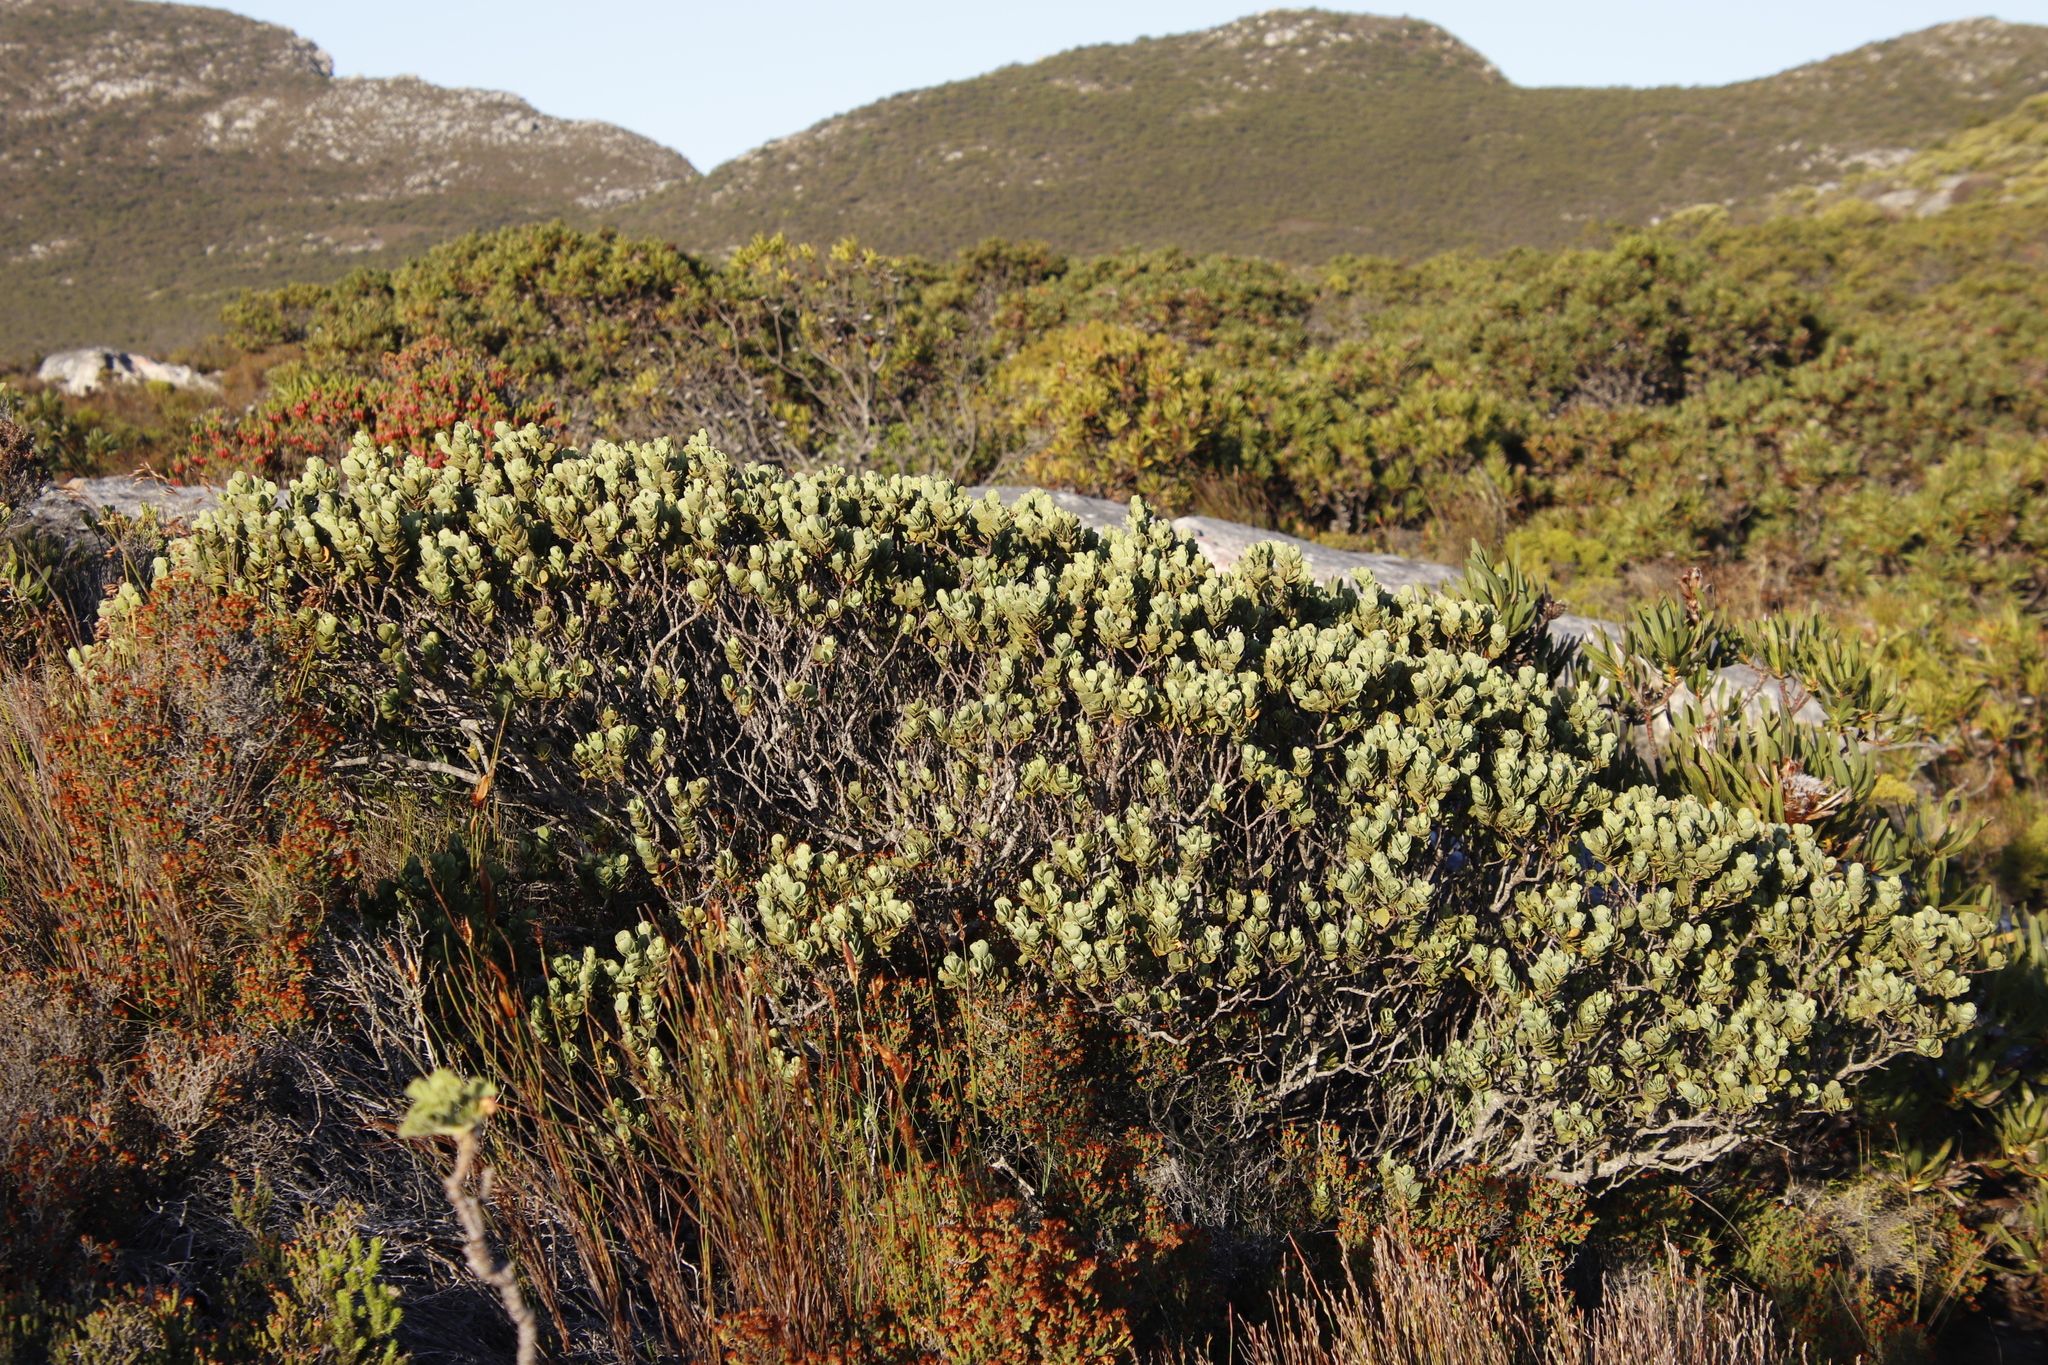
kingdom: Plantae
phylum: Tracheophyta
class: Magnoliopsida
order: Santalales
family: Santalaceae
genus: Osyris
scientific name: Osyris compressa
